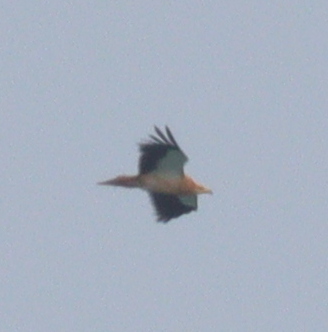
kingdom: Animalia
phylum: Chordata
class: Aves
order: Accipitriformes
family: Accipitridae
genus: Neophron
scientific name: Neophron percnopterus
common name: Egyptian vulture
